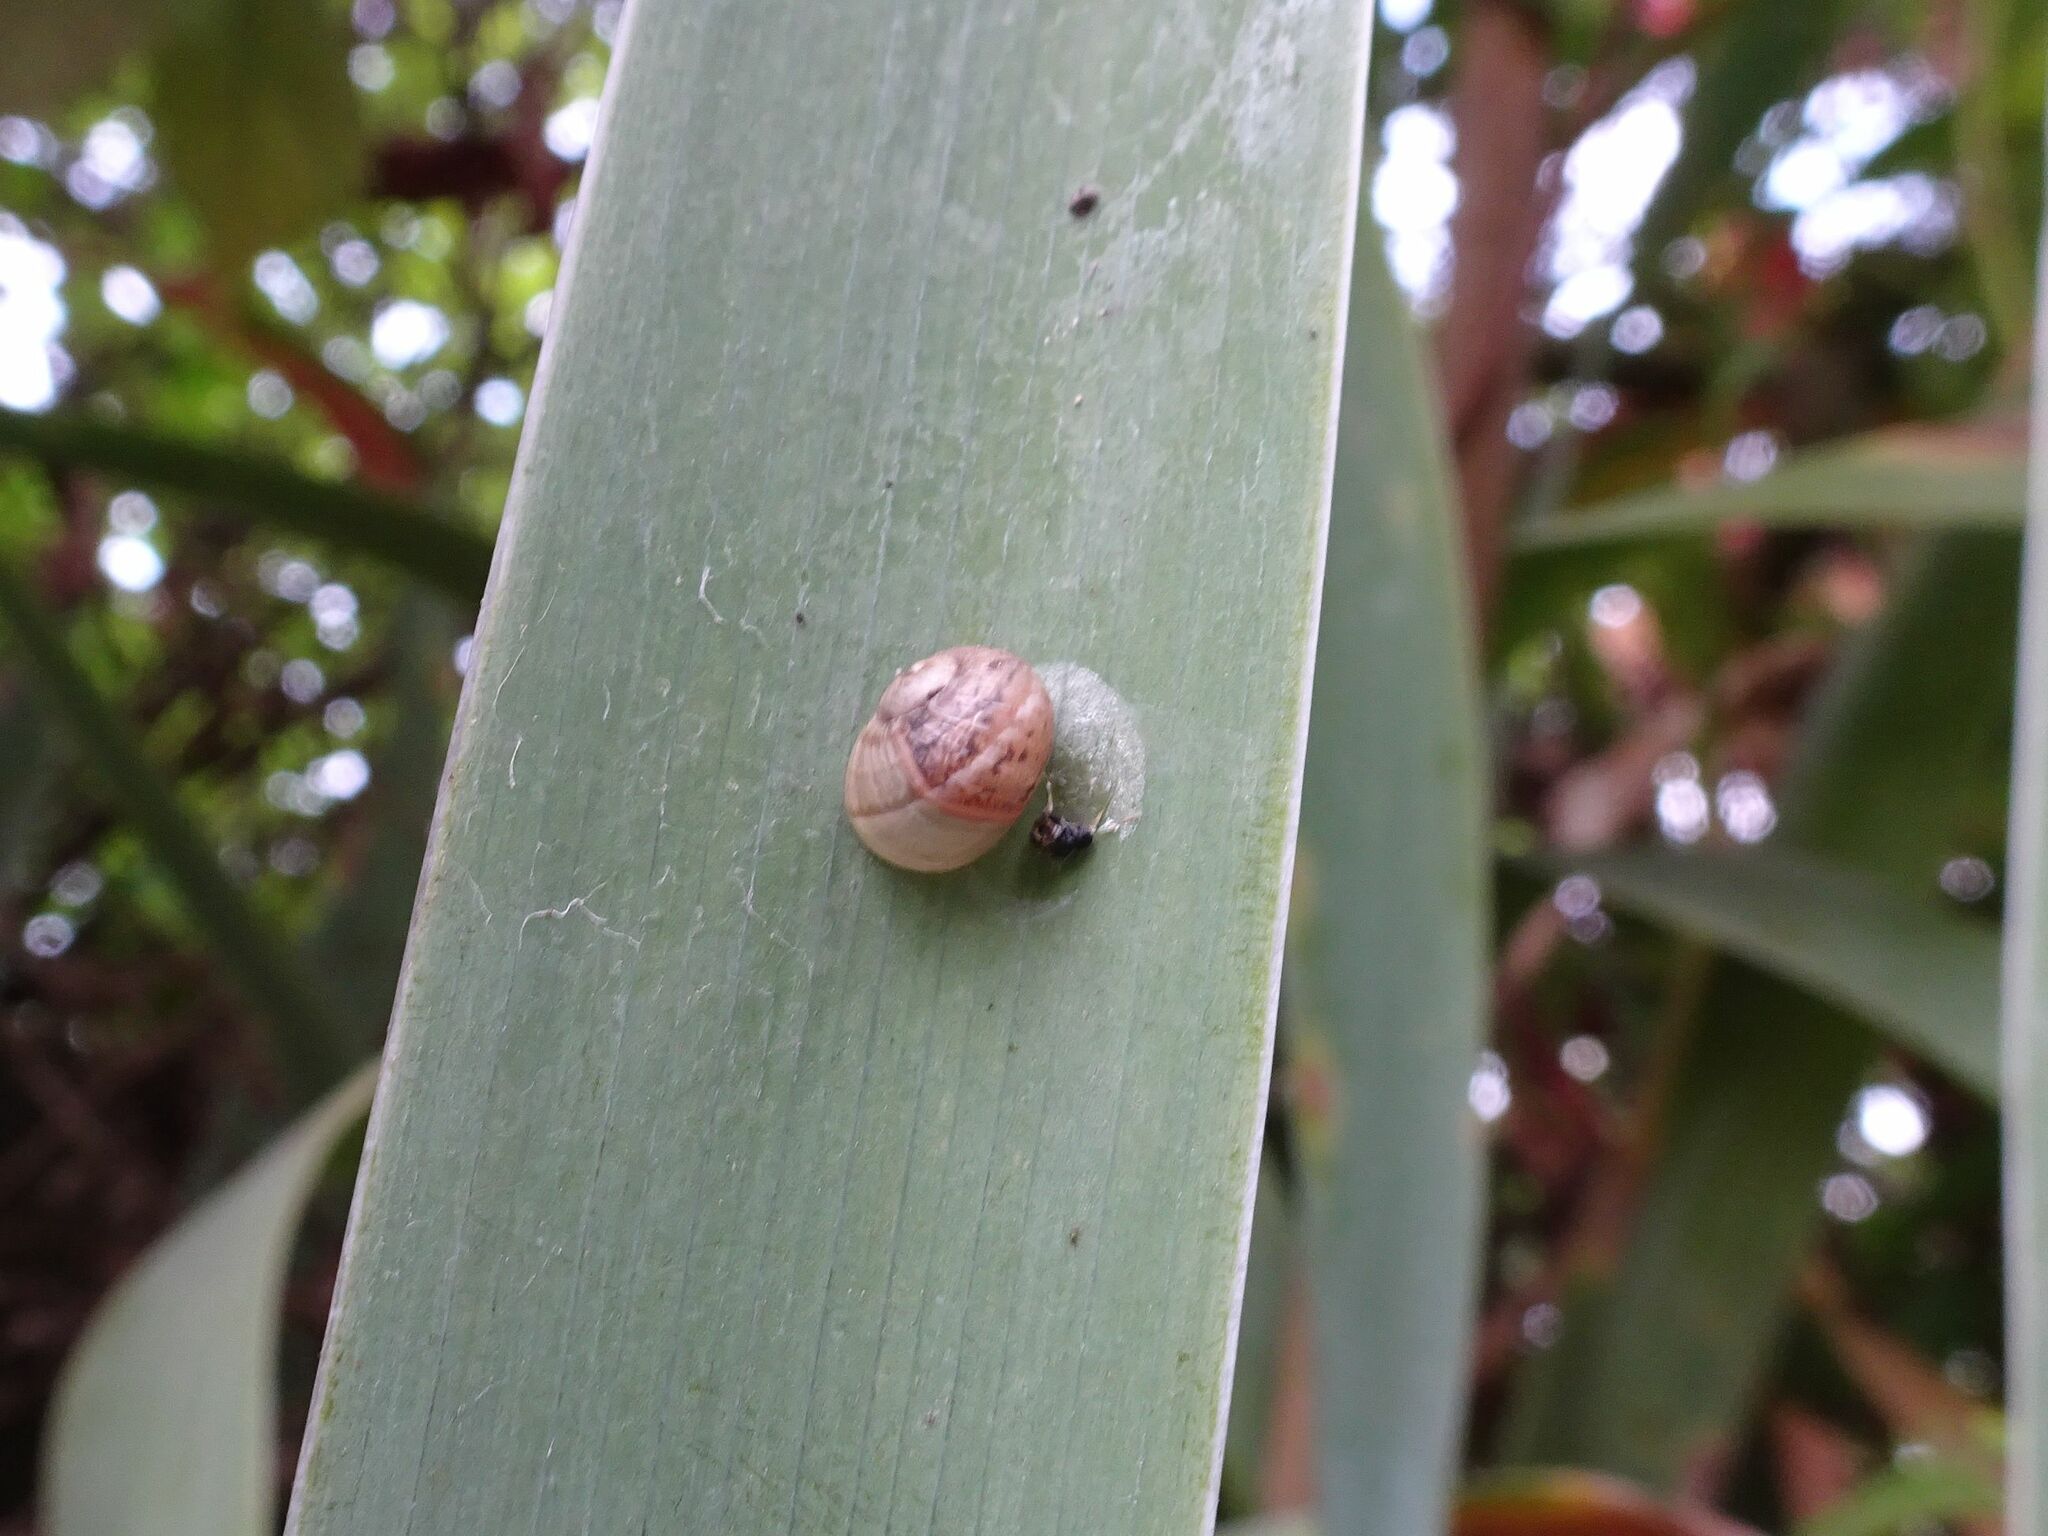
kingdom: Animalia
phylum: Mollusca
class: Gastropoda
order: Stylommatophora
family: Helicidae
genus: Cornu
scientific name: Cornu aspersum
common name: Brown garden snail
